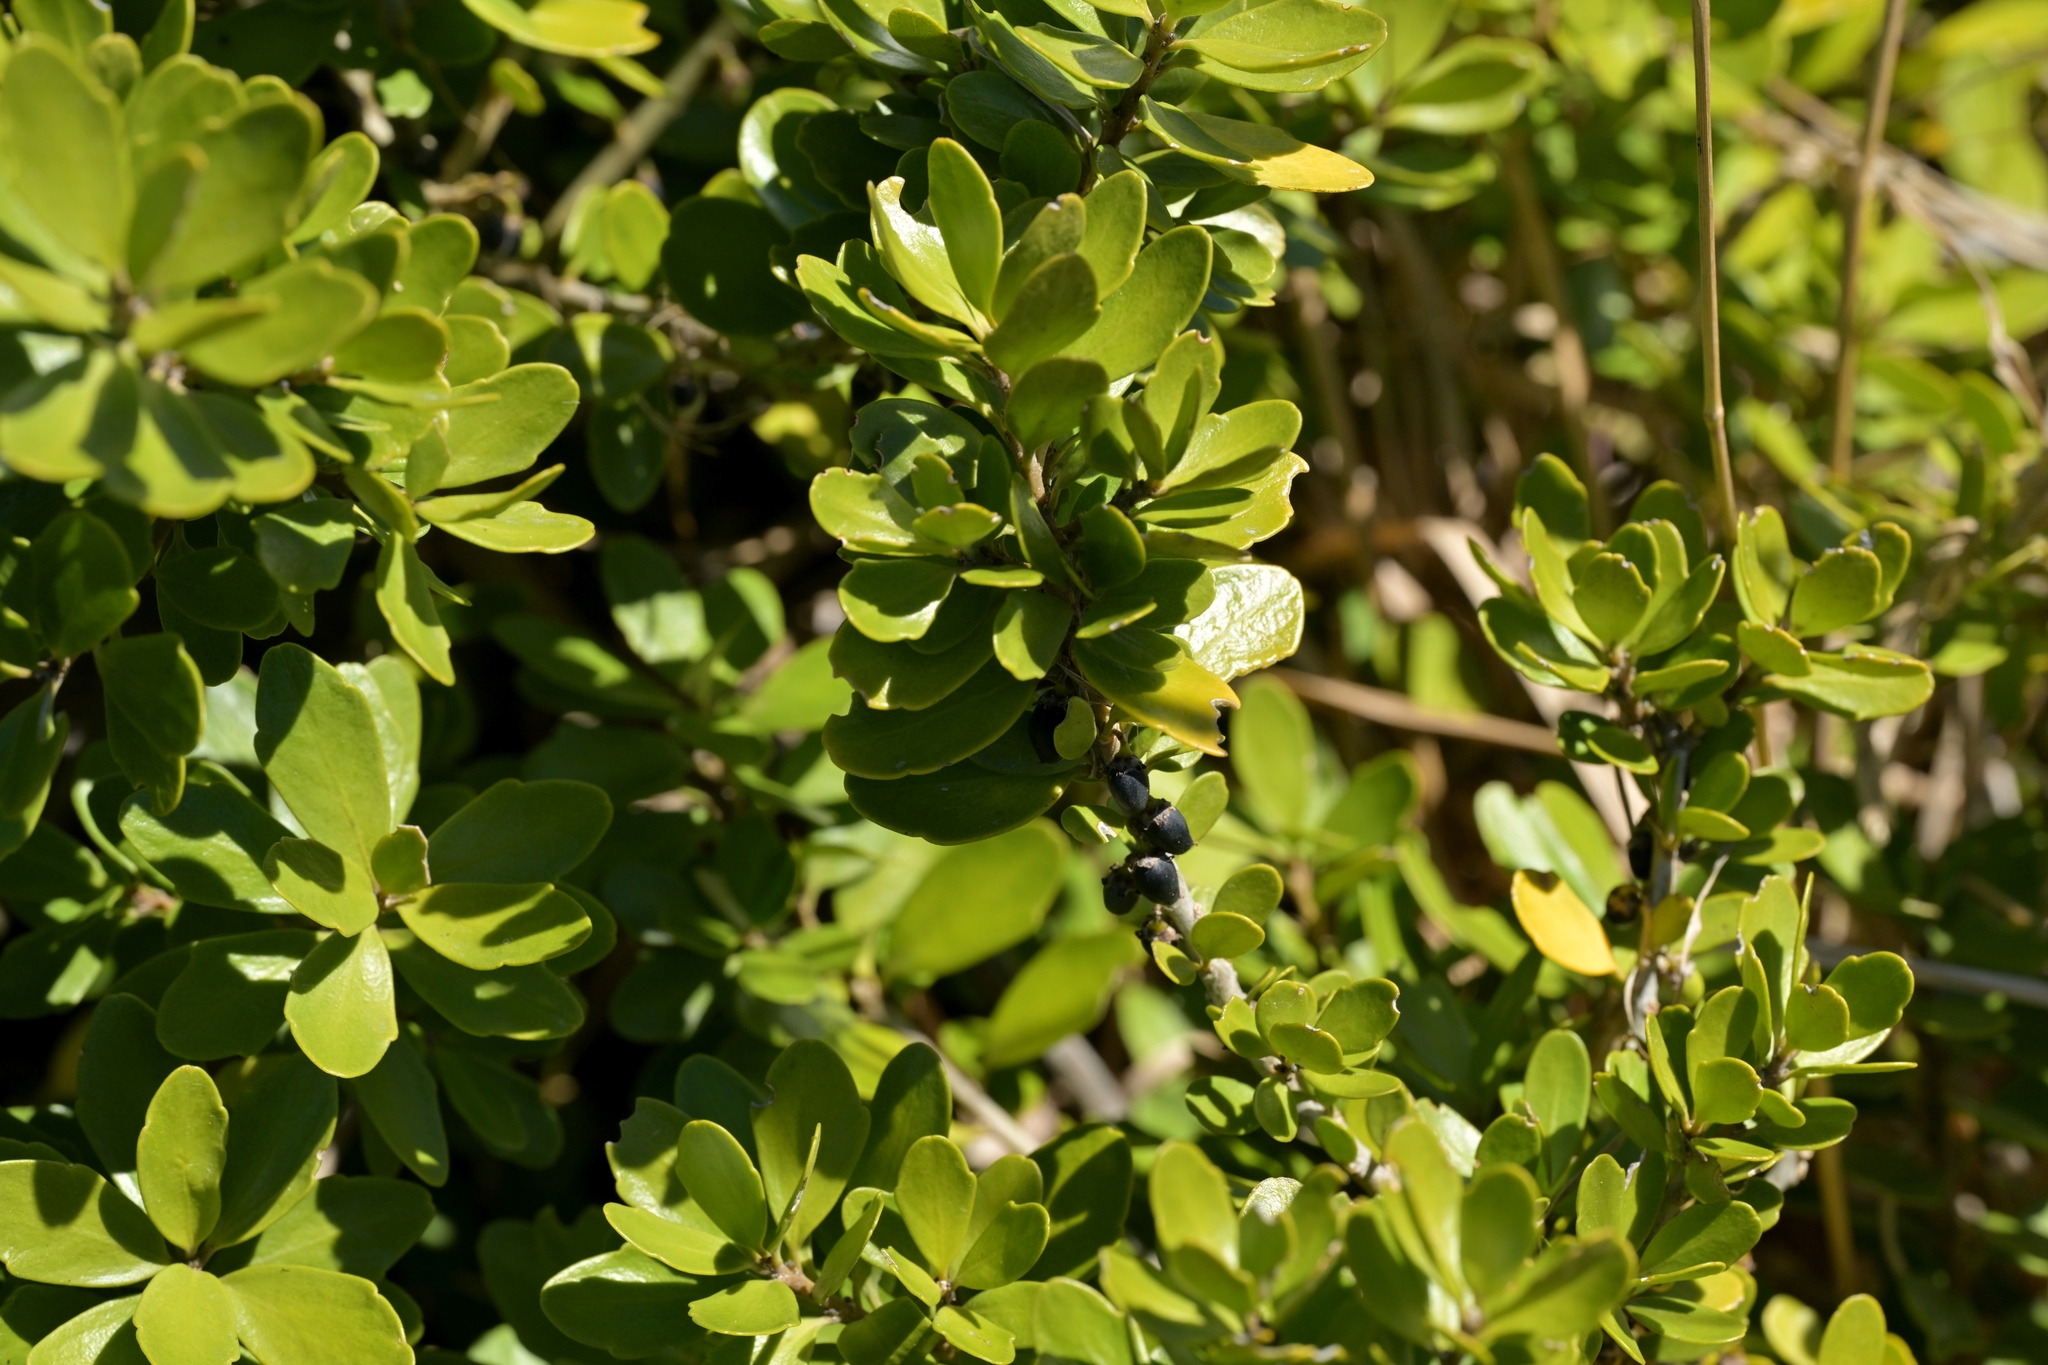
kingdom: Plantae
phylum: Tracheophyta
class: Magnoliopsida
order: Malpighiales
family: Violaceae
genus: Melicytus
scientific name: Melicytus orarius
